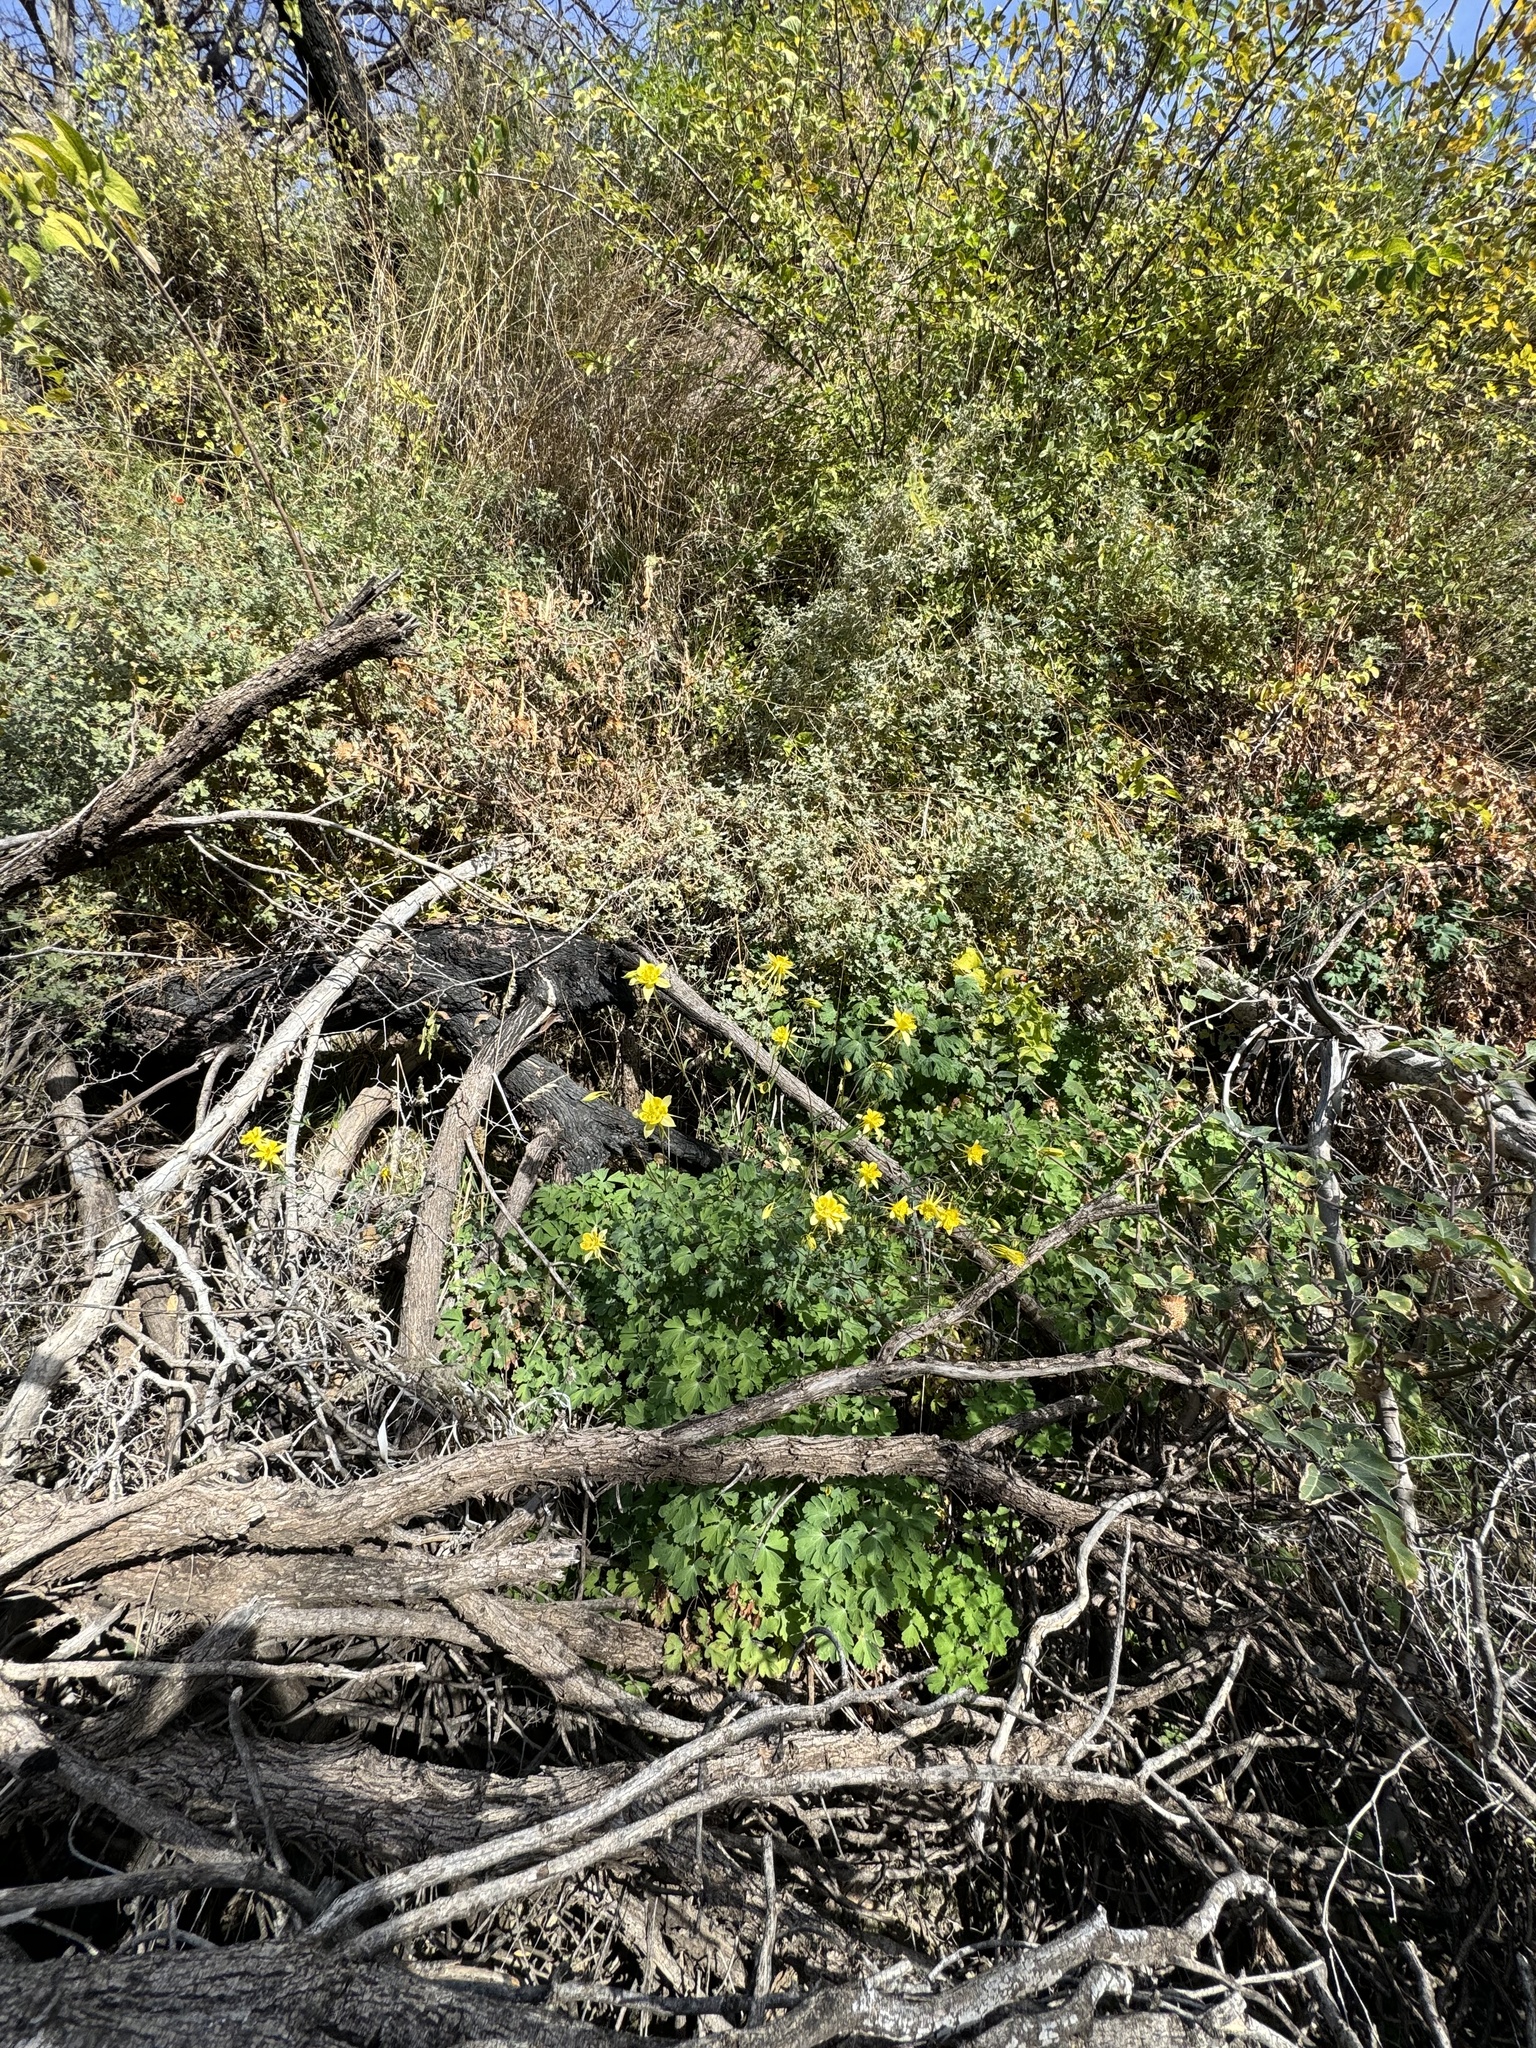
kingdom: Plantae
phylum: Tracheophyta
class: Magnoliopsida
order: Ranunculales
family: Ranunculaceae
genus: Aquilegia
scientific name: Aquilegia chrysantha
